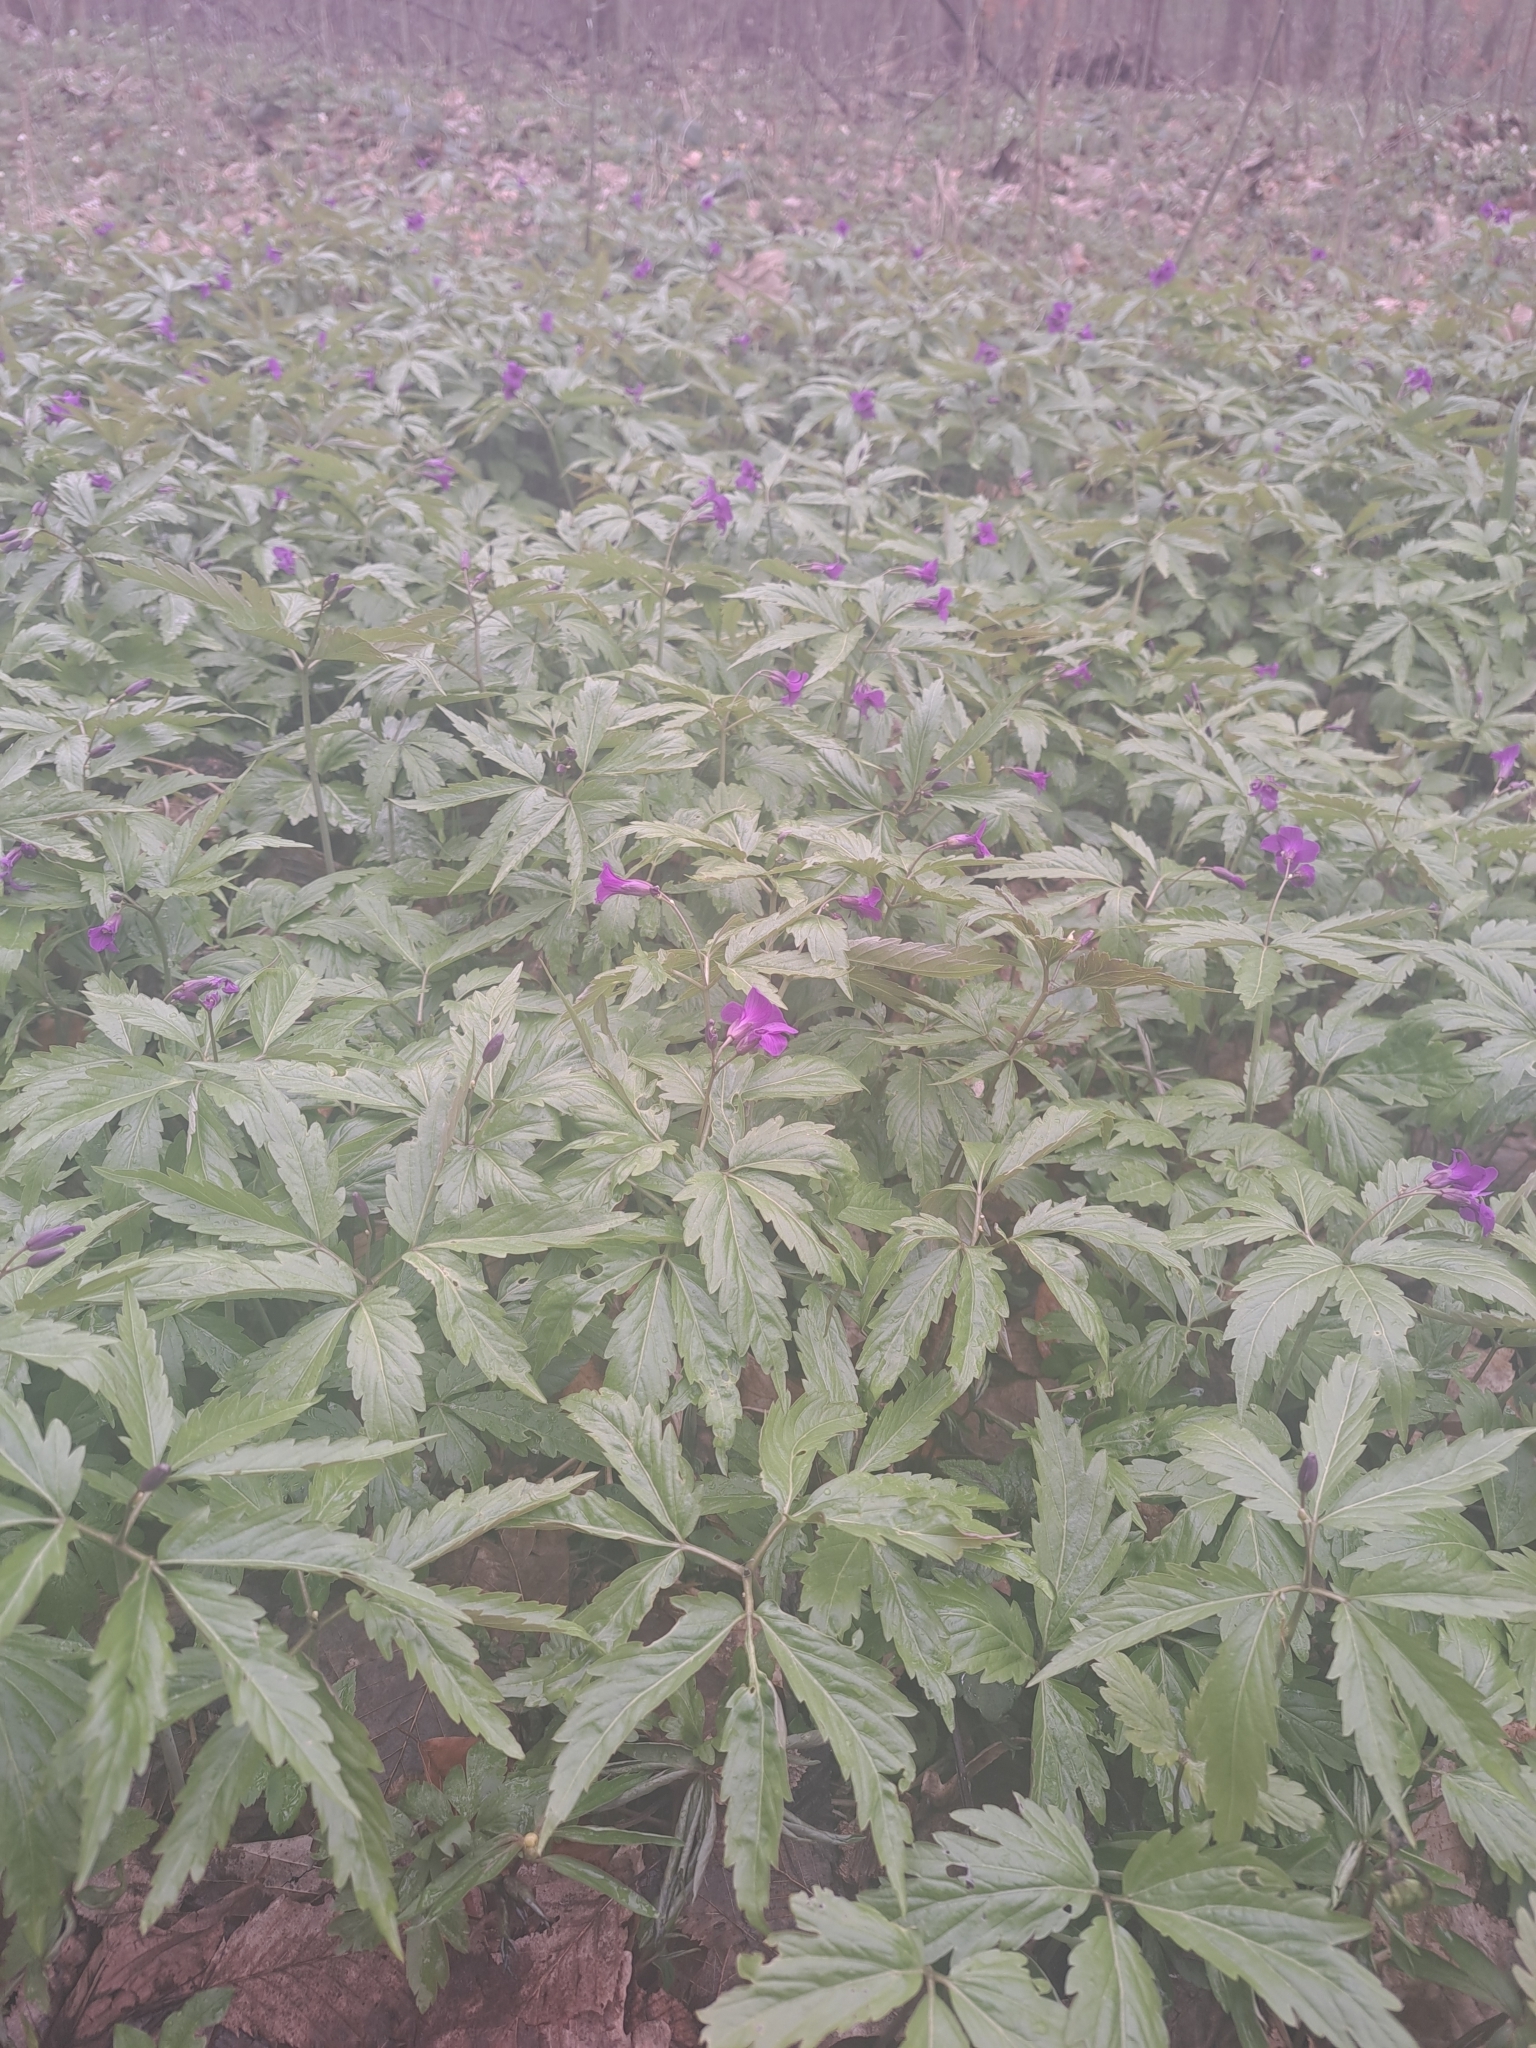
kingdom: Plantae
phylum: Tracheophyta
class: Magnoliopsida
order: Brassicales
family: Brassicaceae
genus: Cardamine
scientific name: Cardamine glanduligera
